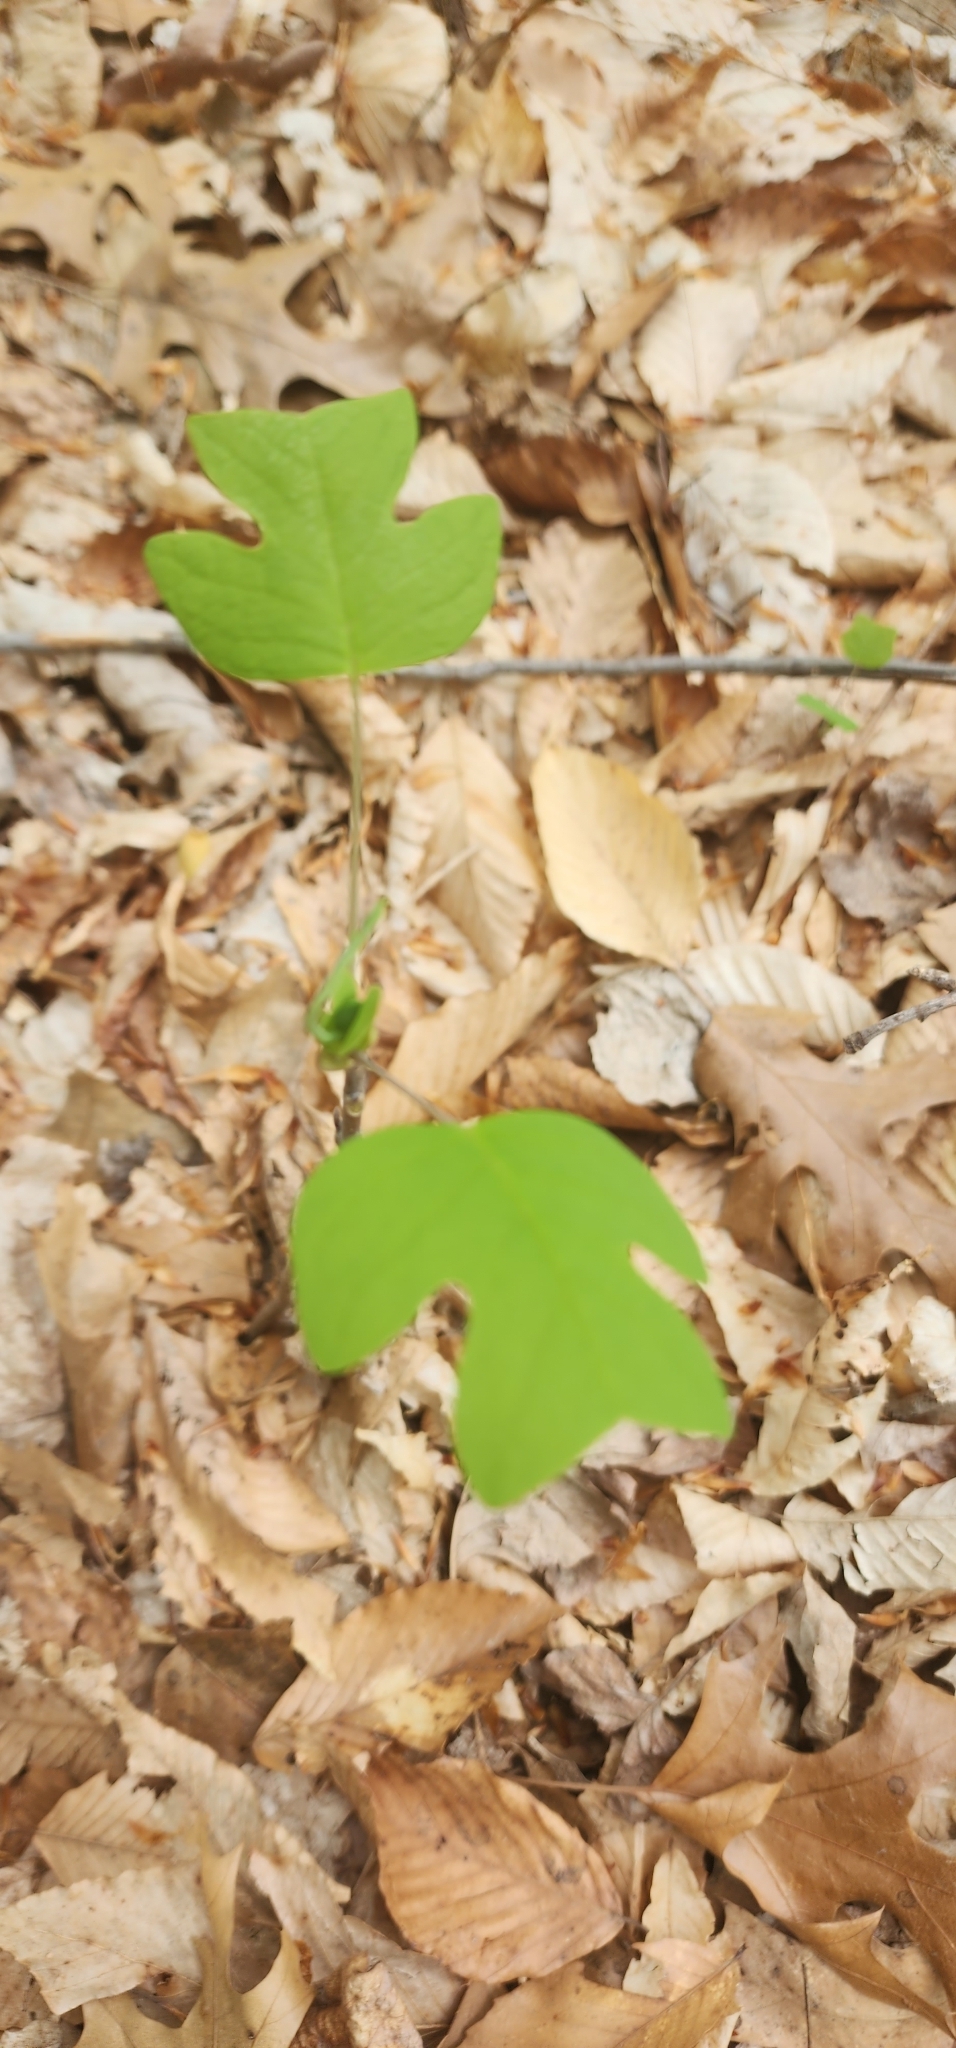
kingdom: Plantae
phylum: Tracheophyta
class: Magnoliopsida
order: Magnoliales
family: Magnoliaceae
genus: Liriodendron
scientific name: Liriodendron tulipifera
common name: Tulip tree
